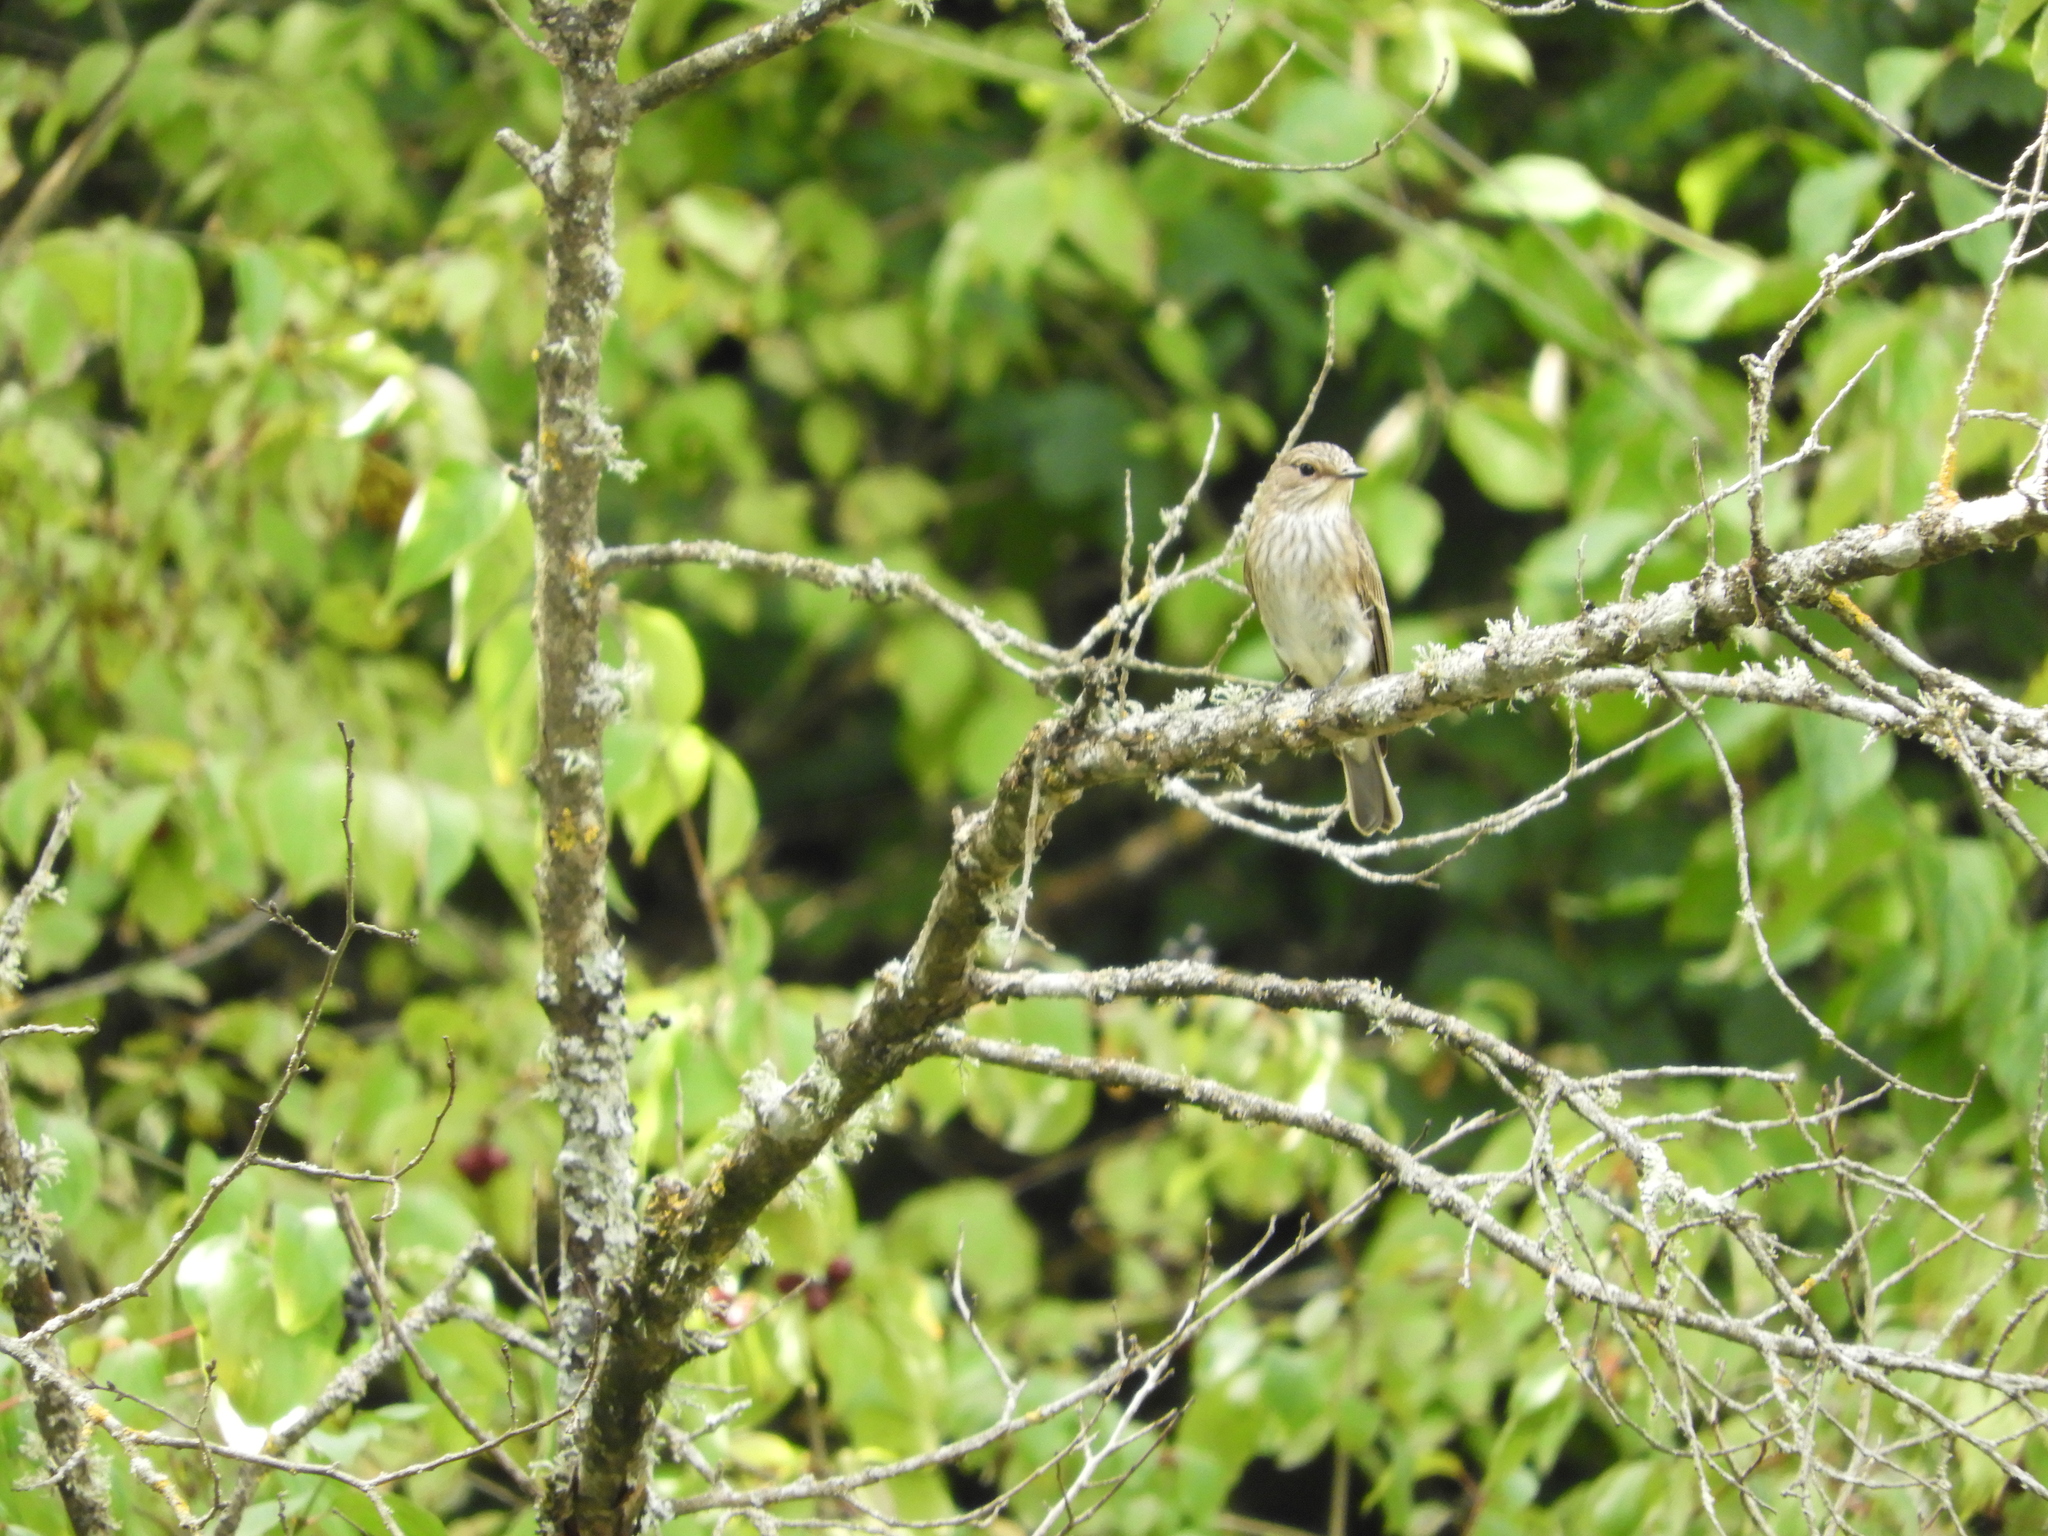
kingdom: Animalia
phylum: Chordata
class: Aves
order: Passeriformes
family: Muscicapidae
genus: Muscicapa
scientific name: Muscicapa striata
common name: Spotted flycatcher
